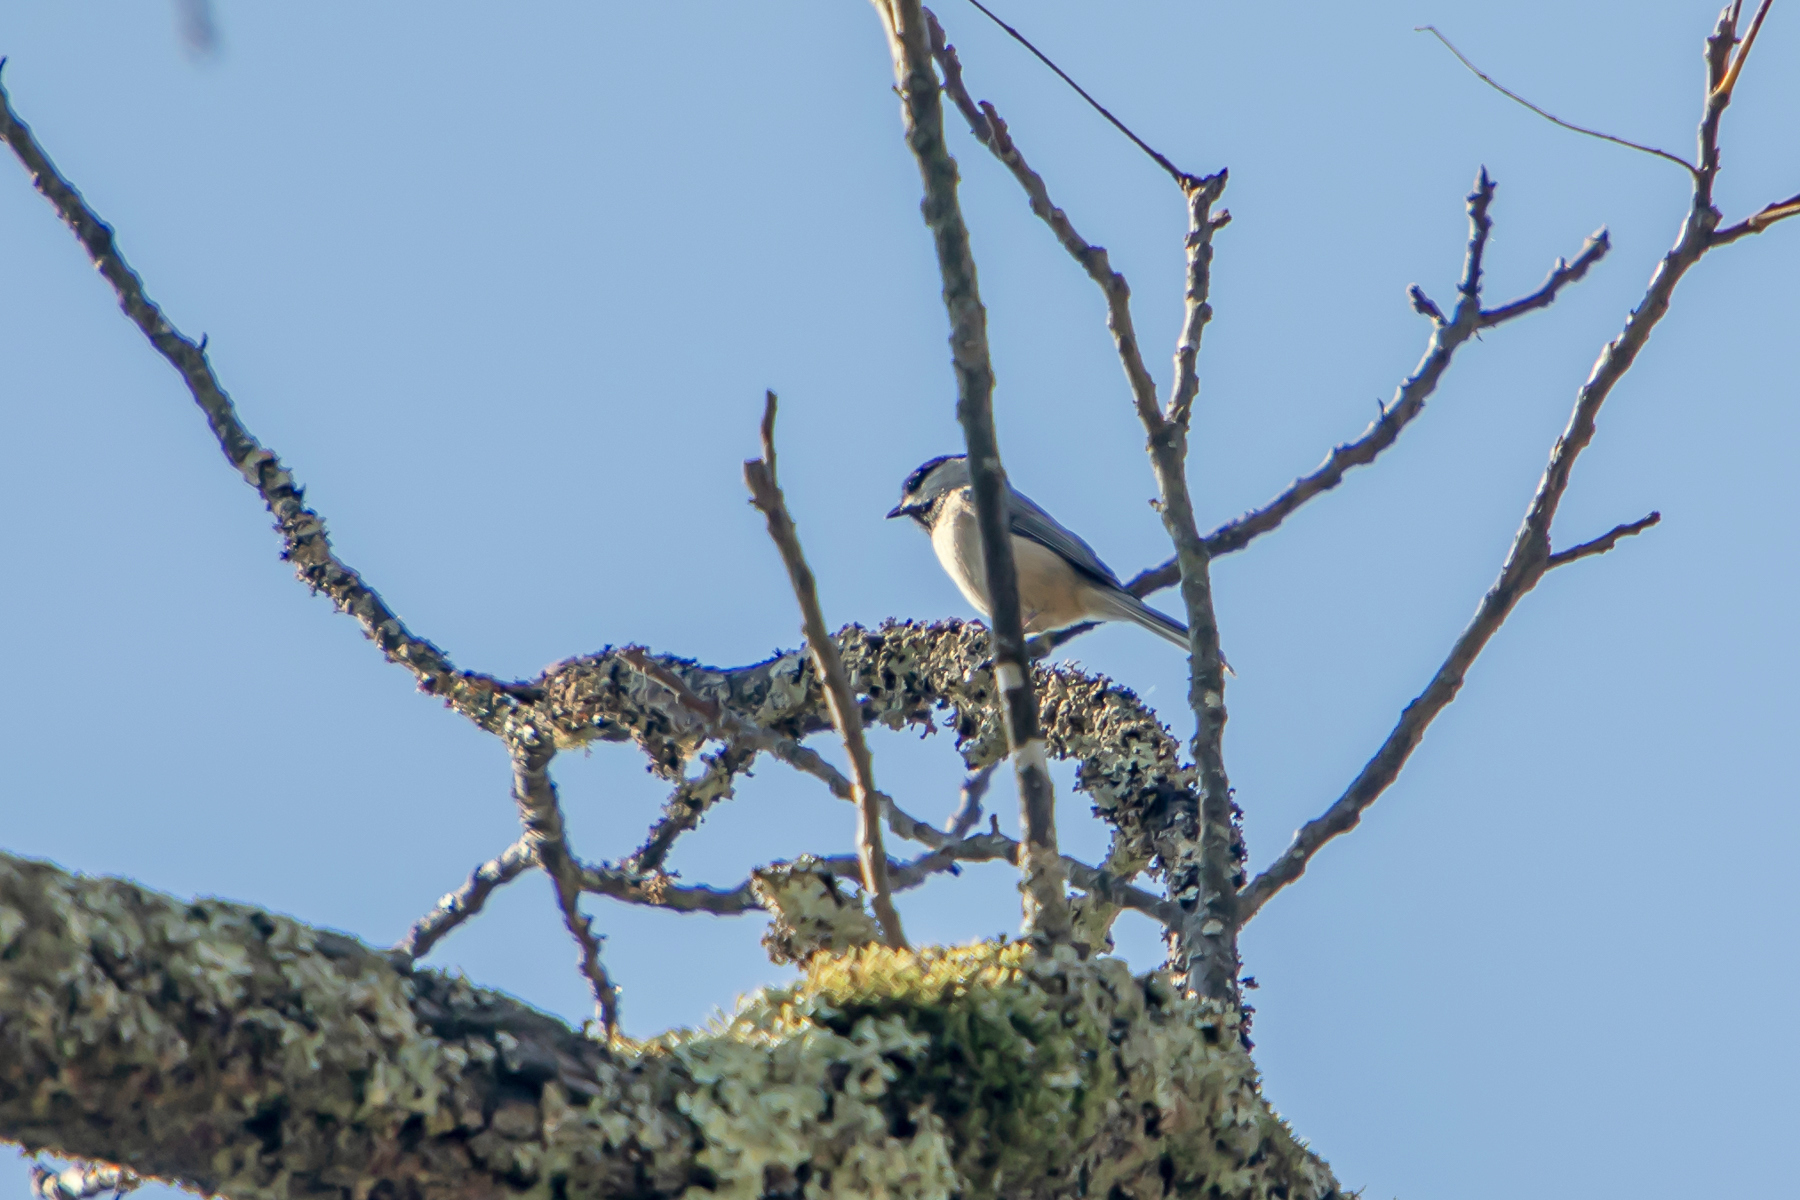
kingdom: Animalia
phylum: Chordata
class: Aves
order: Passeriformes
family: Paridae
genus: Poecile
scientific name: Poecile carolinensis
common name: Carolina chickadee
